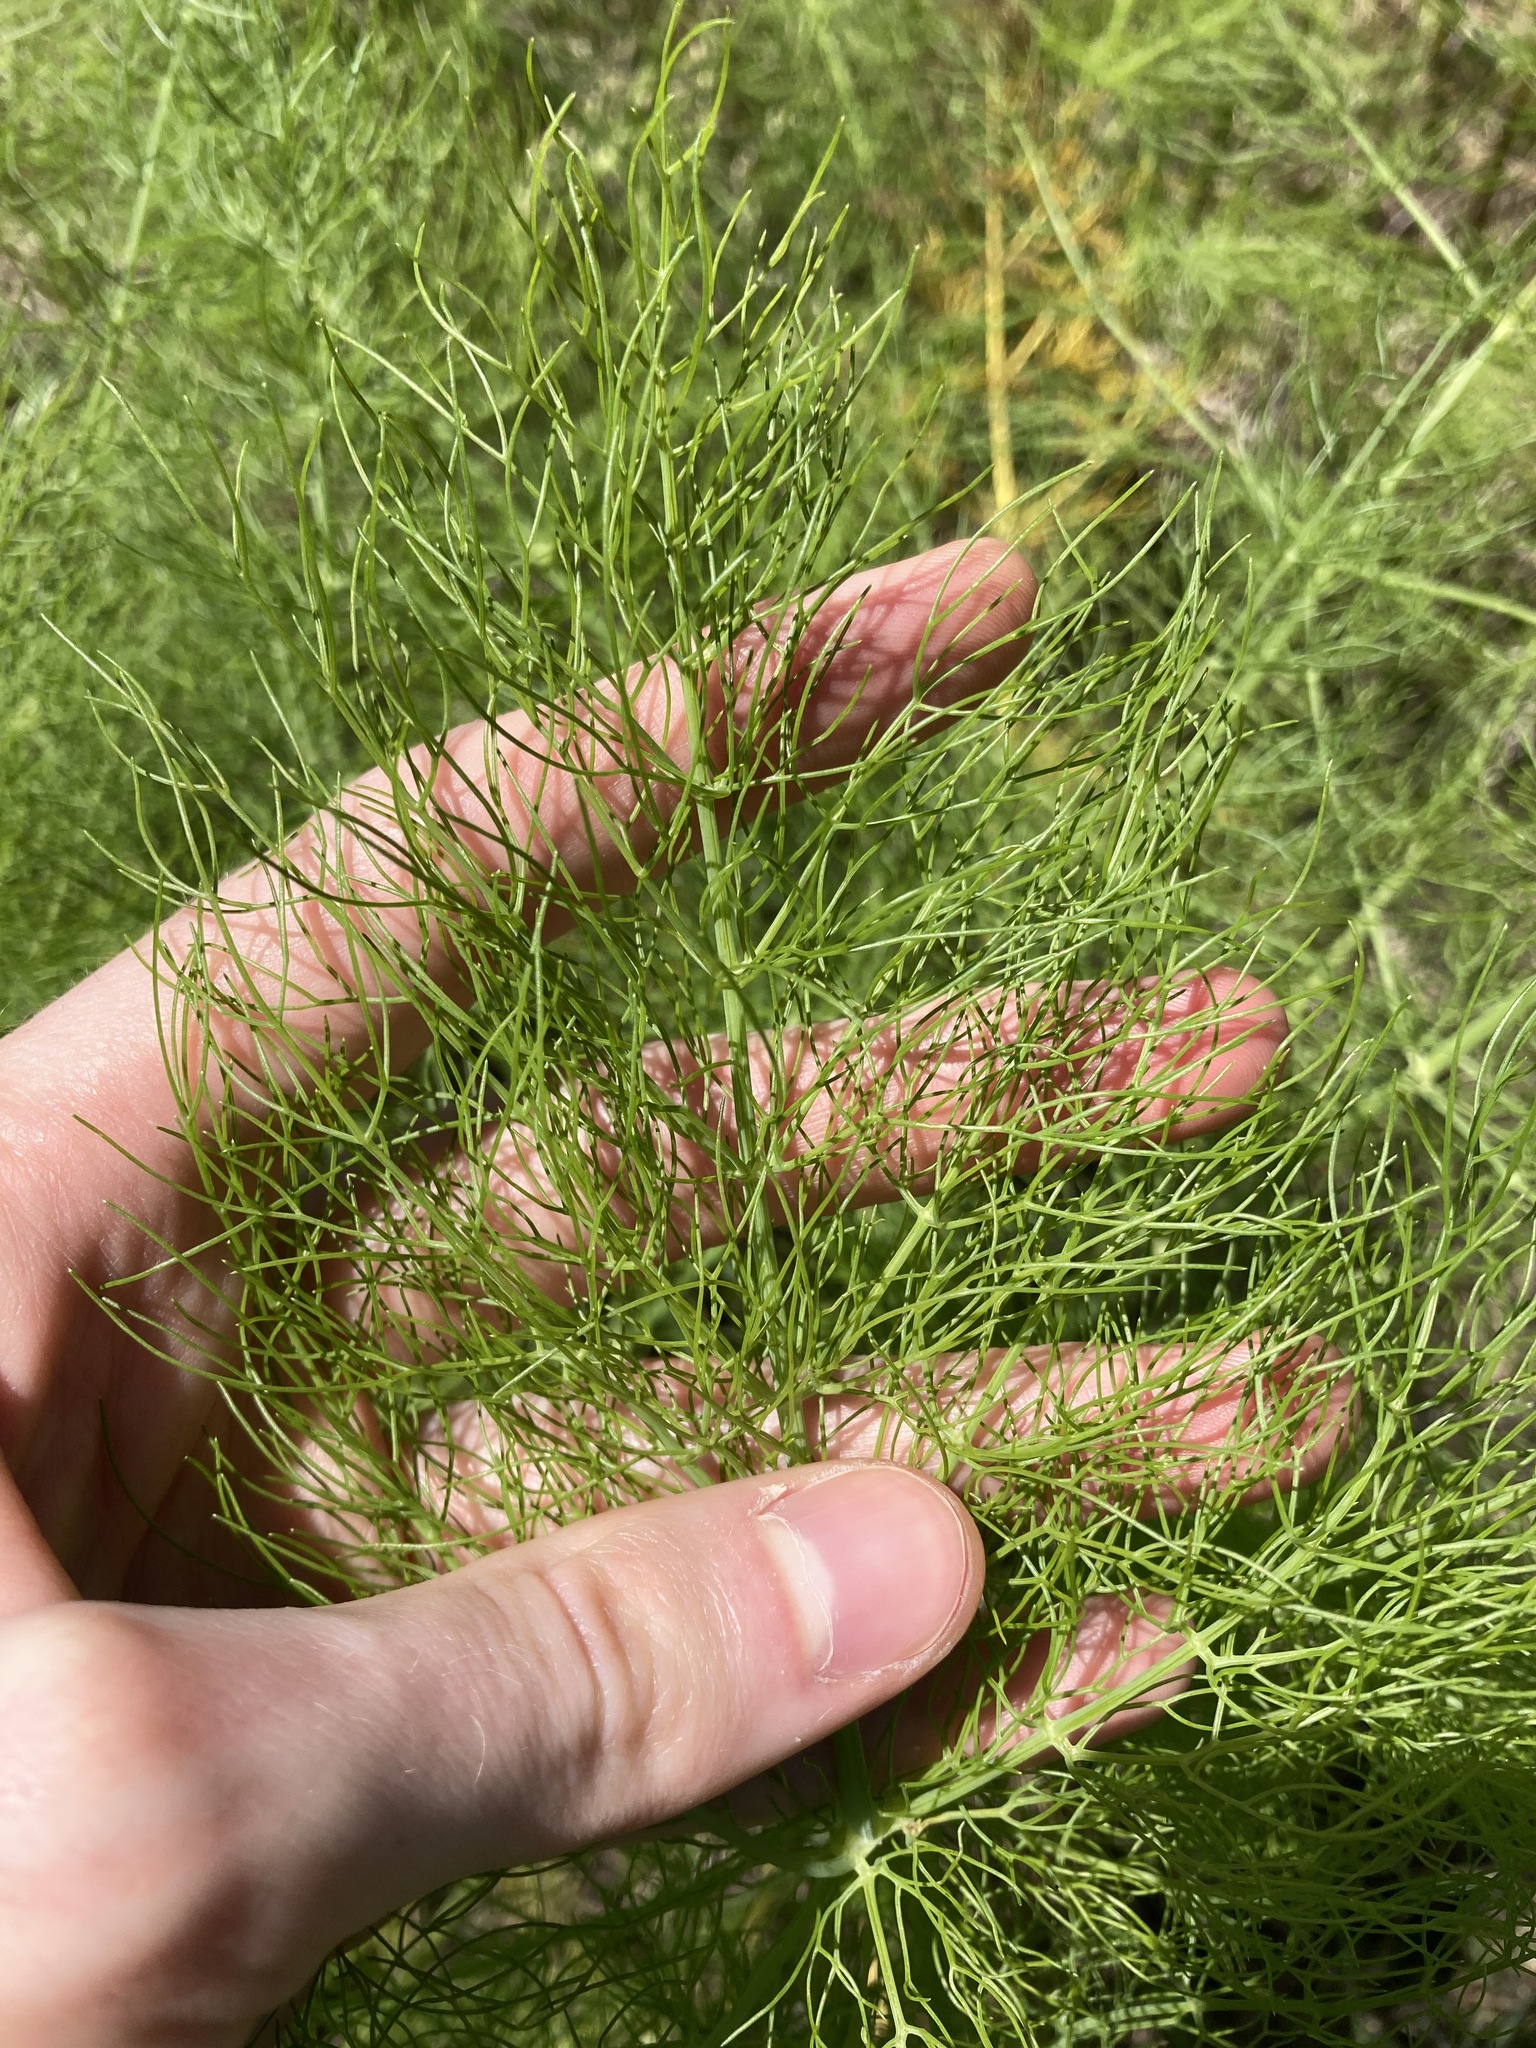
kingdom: Plantae
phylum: Tracheophyta
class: Magnoliopsida
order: Apiales
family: Apiaceae
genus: Foeniculum
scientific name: Foeniculum vulgare
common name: Fennel
